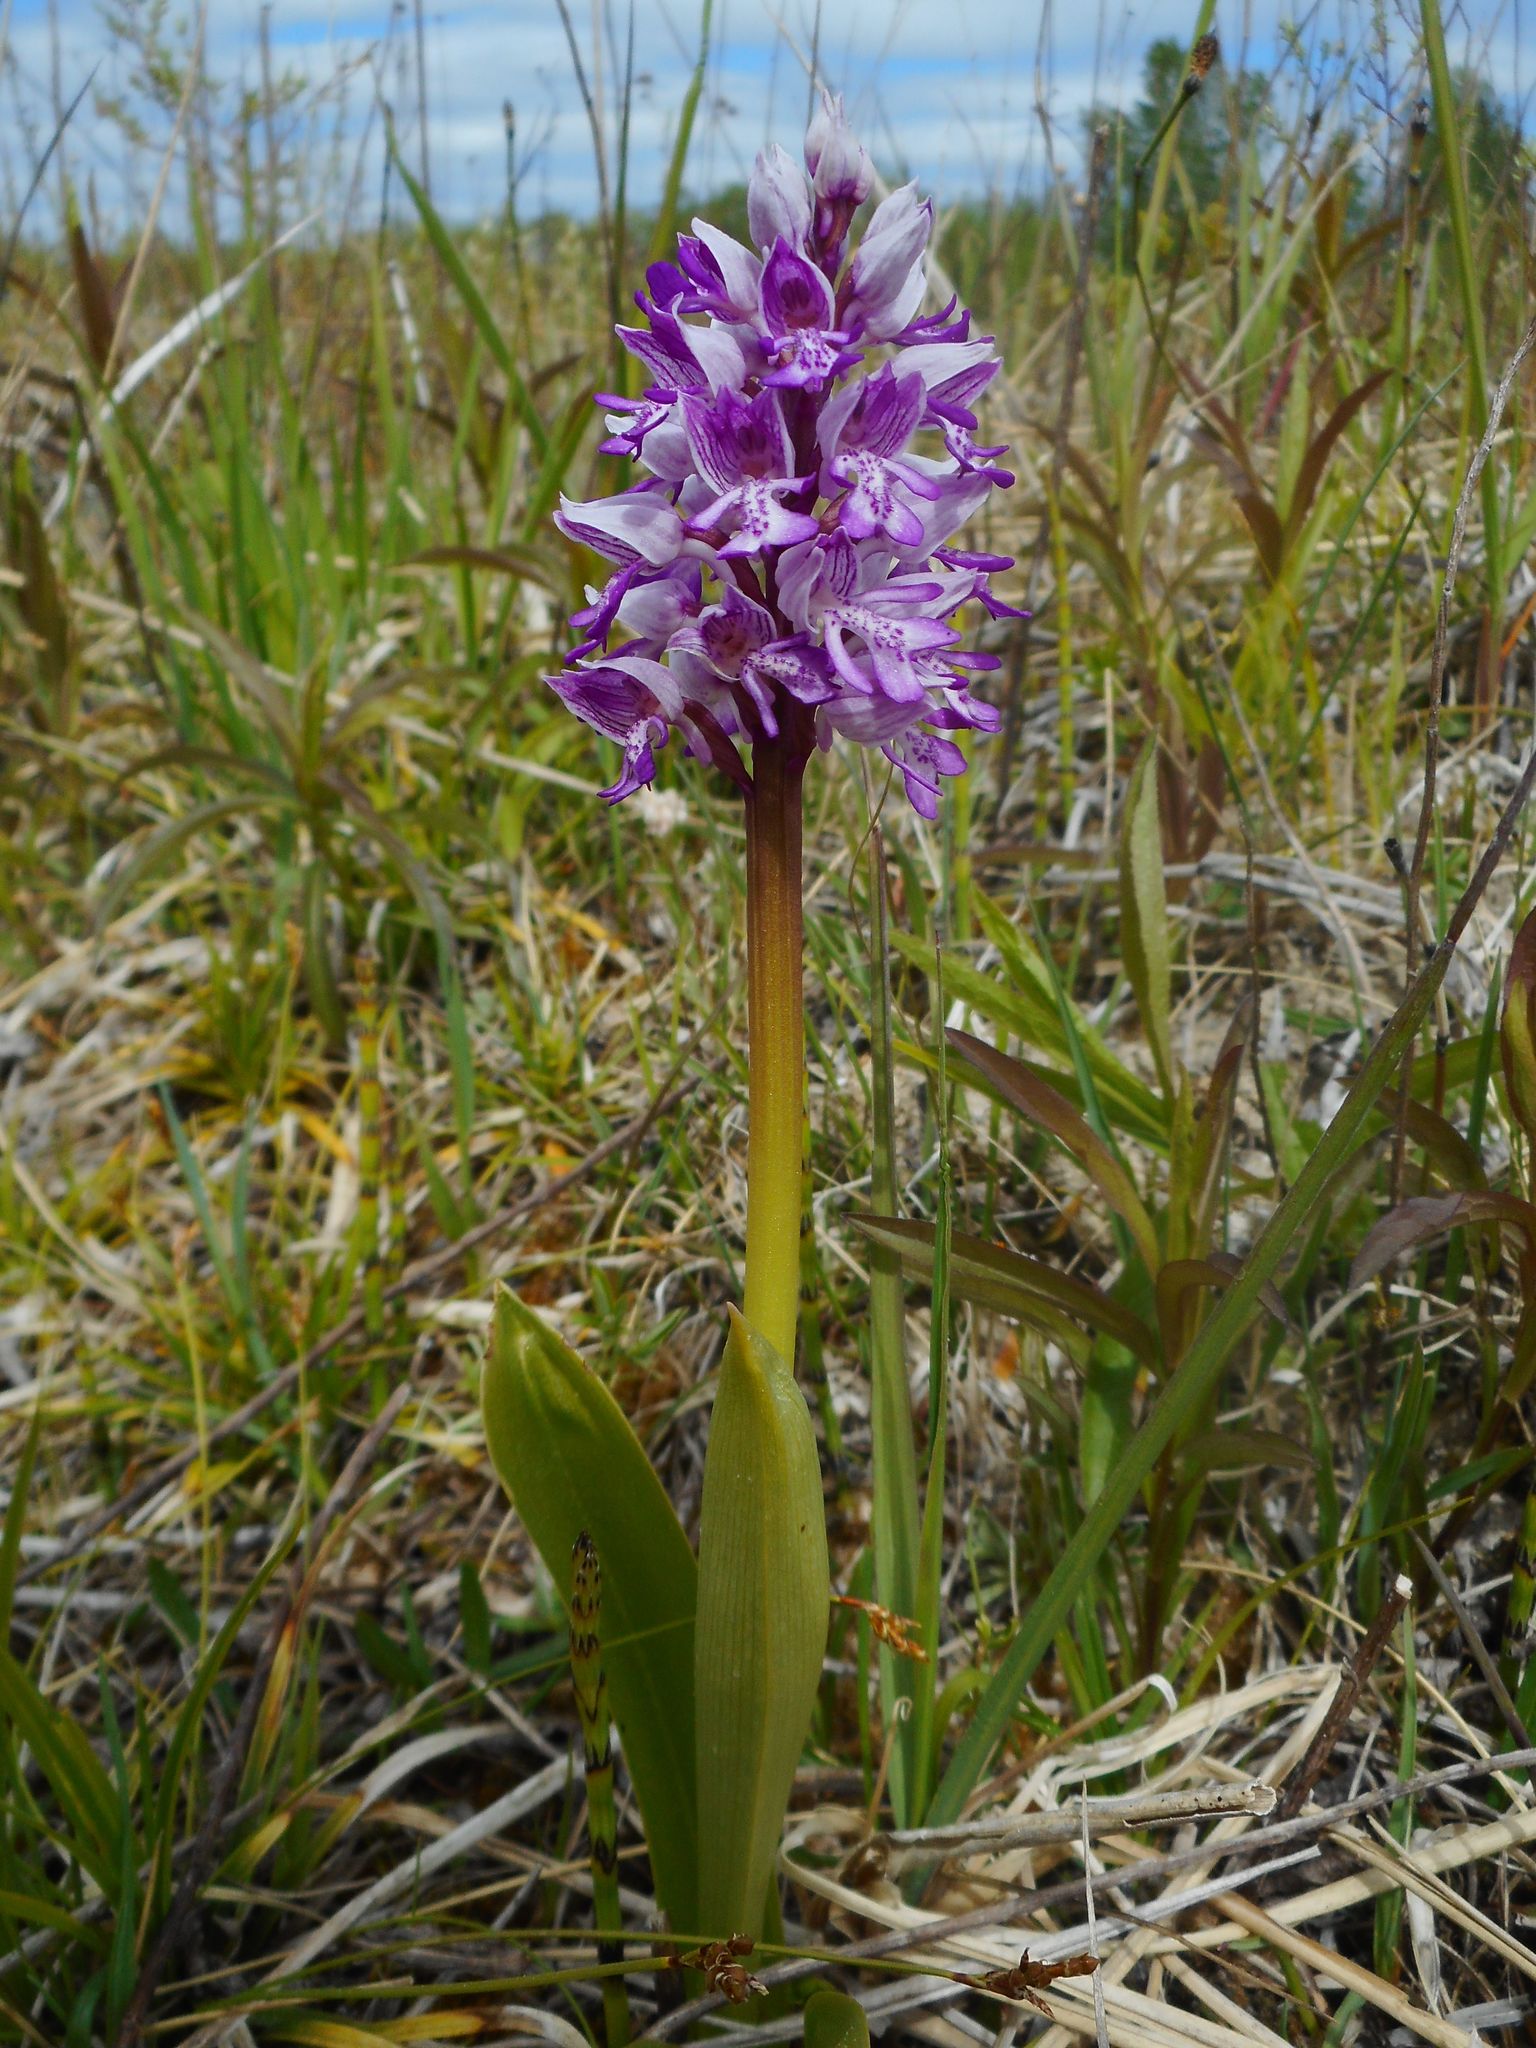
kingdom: Plantae
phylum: Tracheophyta
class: Liliopsida
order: Asparagales
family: Orchidaceae
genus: Orchis
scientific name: Orchis militaris
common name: Military orchid
